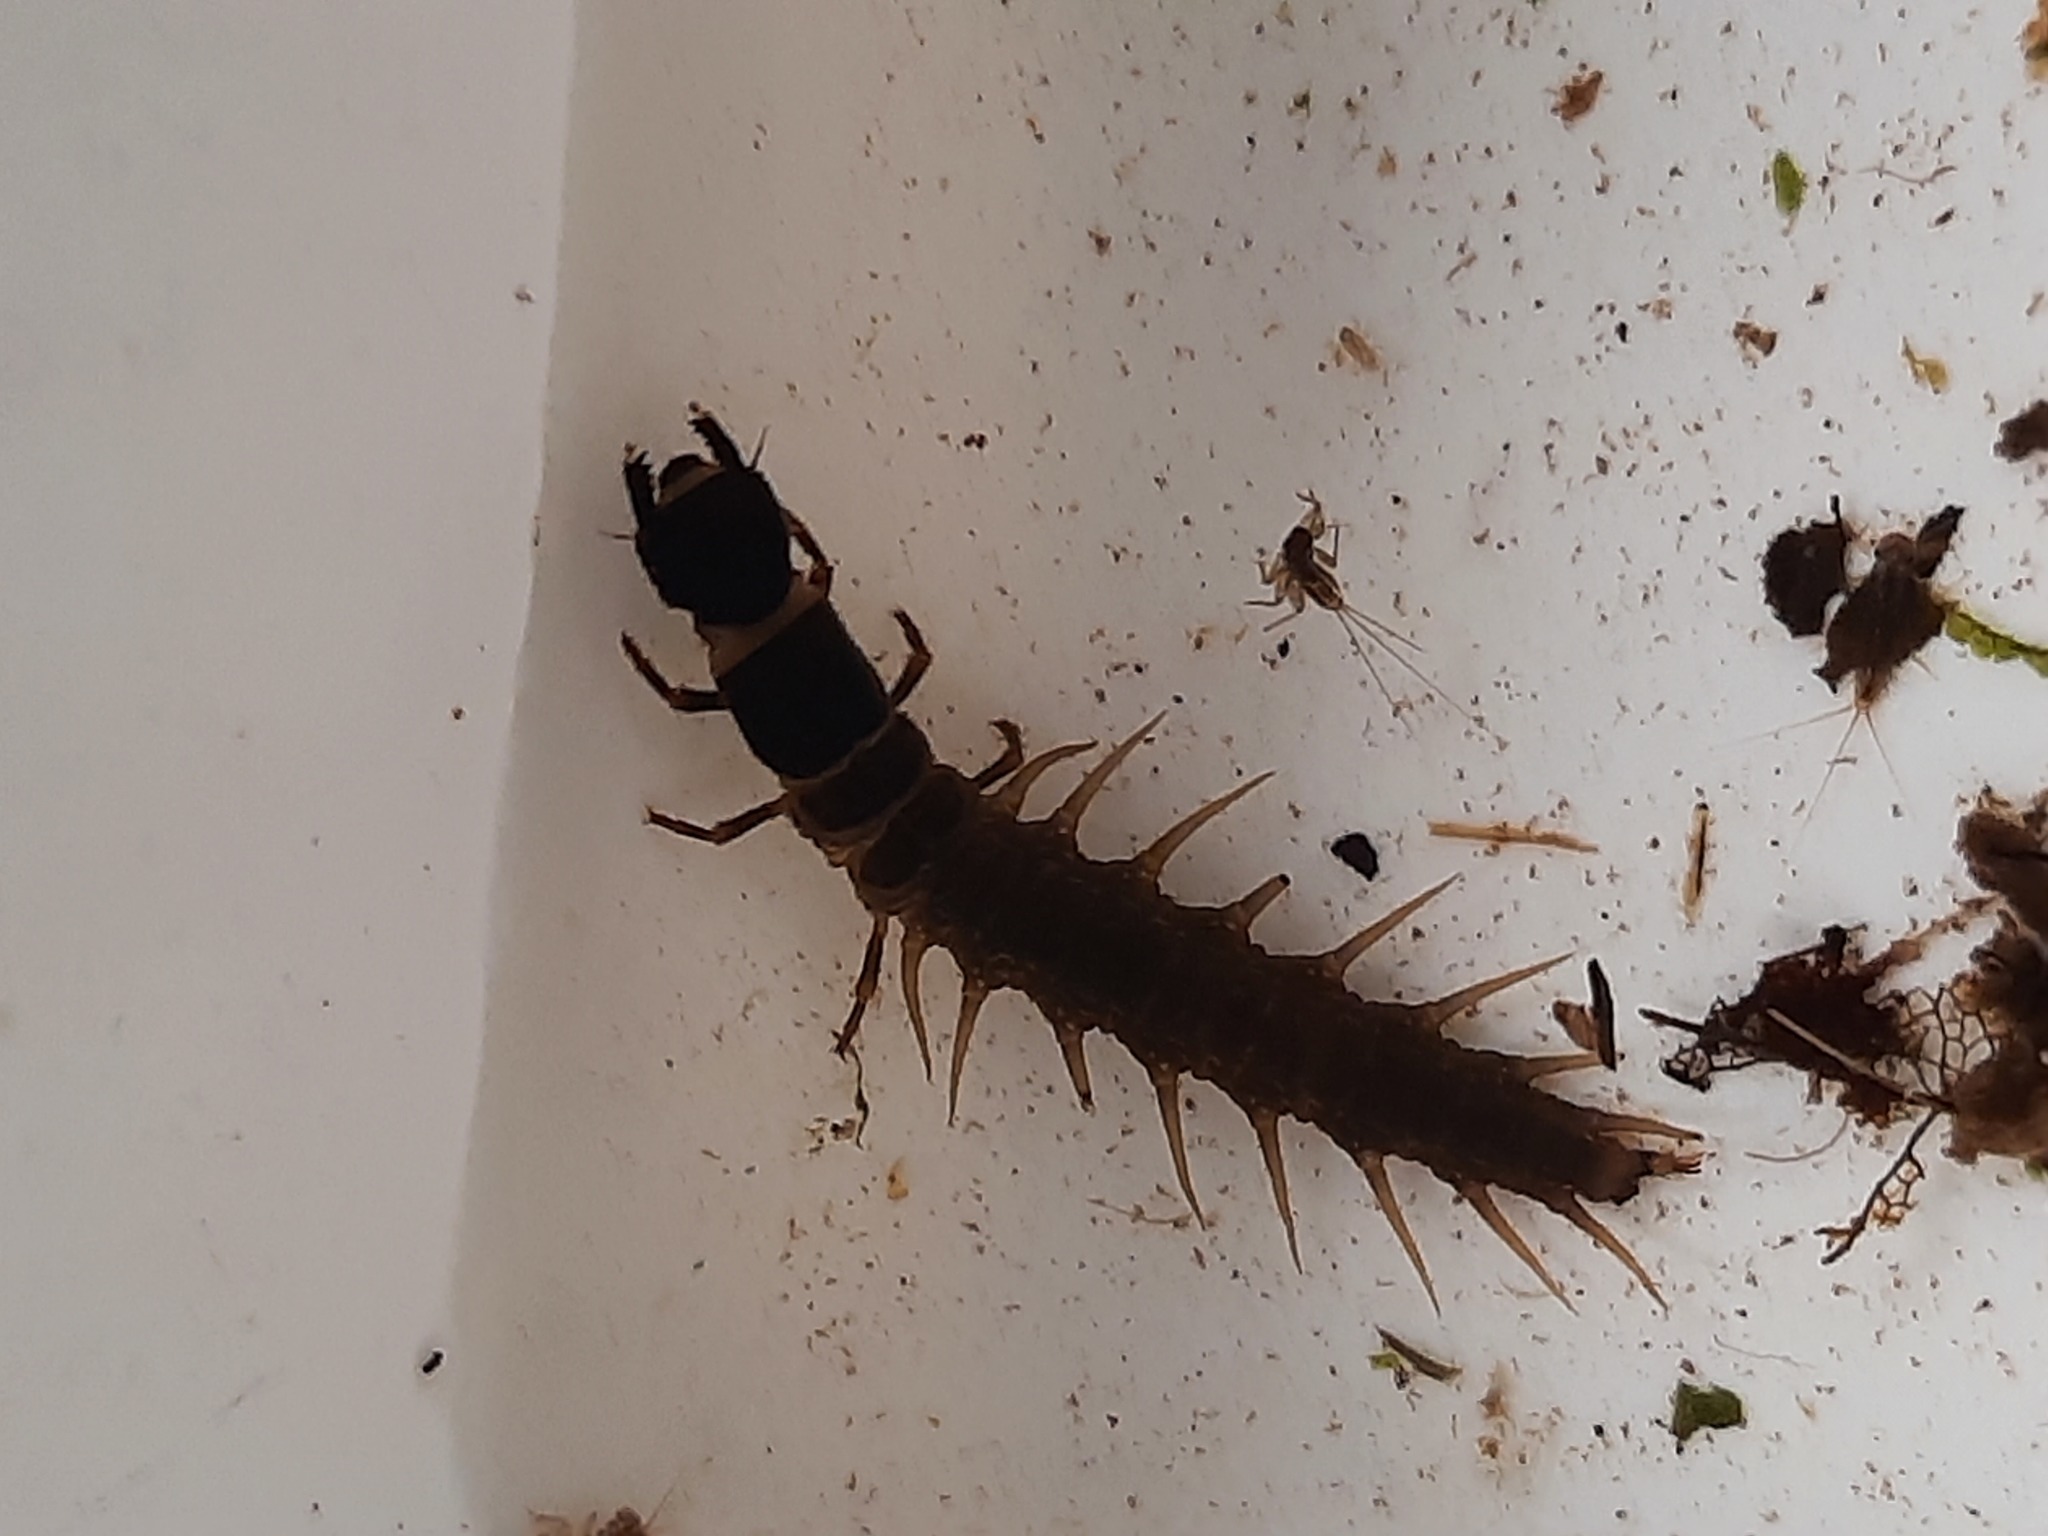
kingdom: Animalia
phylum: Arthropoda
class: Insecta
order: Megaloptera
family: Corydalidae
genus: Archichauliodes
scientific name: Archichauliodes diversus
